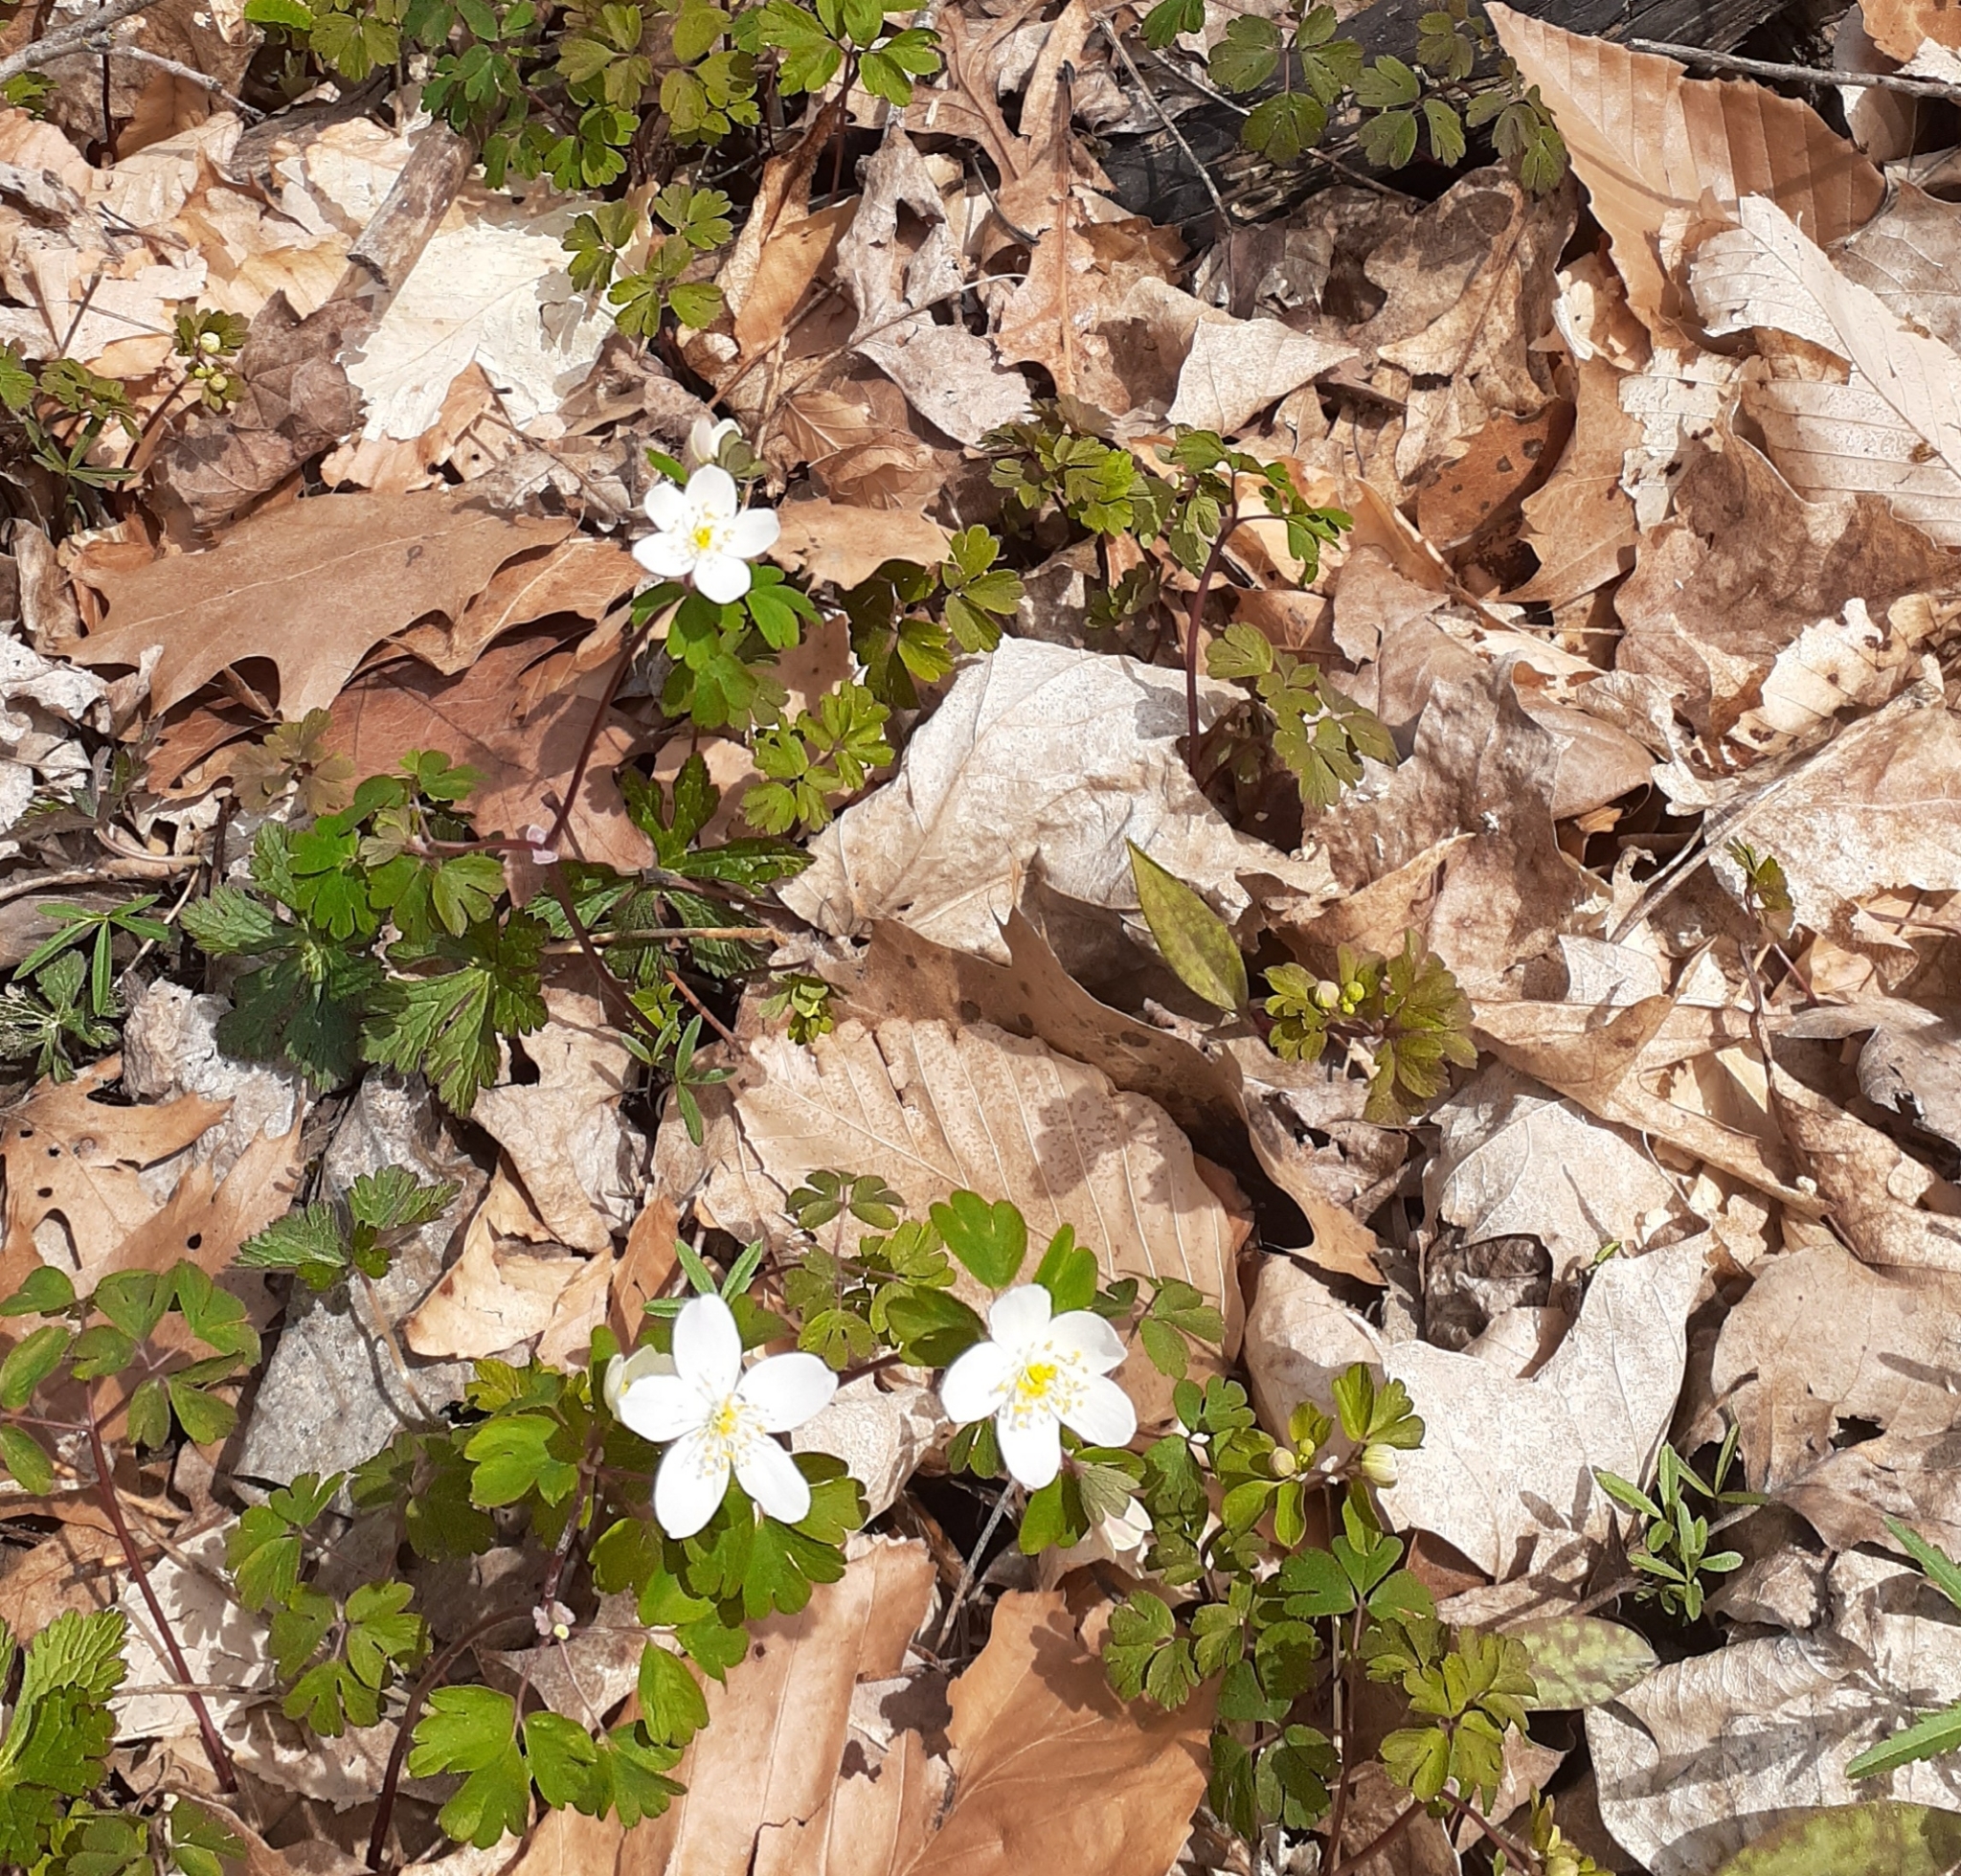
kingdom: Plantae
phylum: Tracheophyta
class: Magnoliopsida
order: Ranunculales
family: Ranunculaceae
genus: Enemion
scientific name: Enemion biternatum
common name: Eastern false rue-anemone
